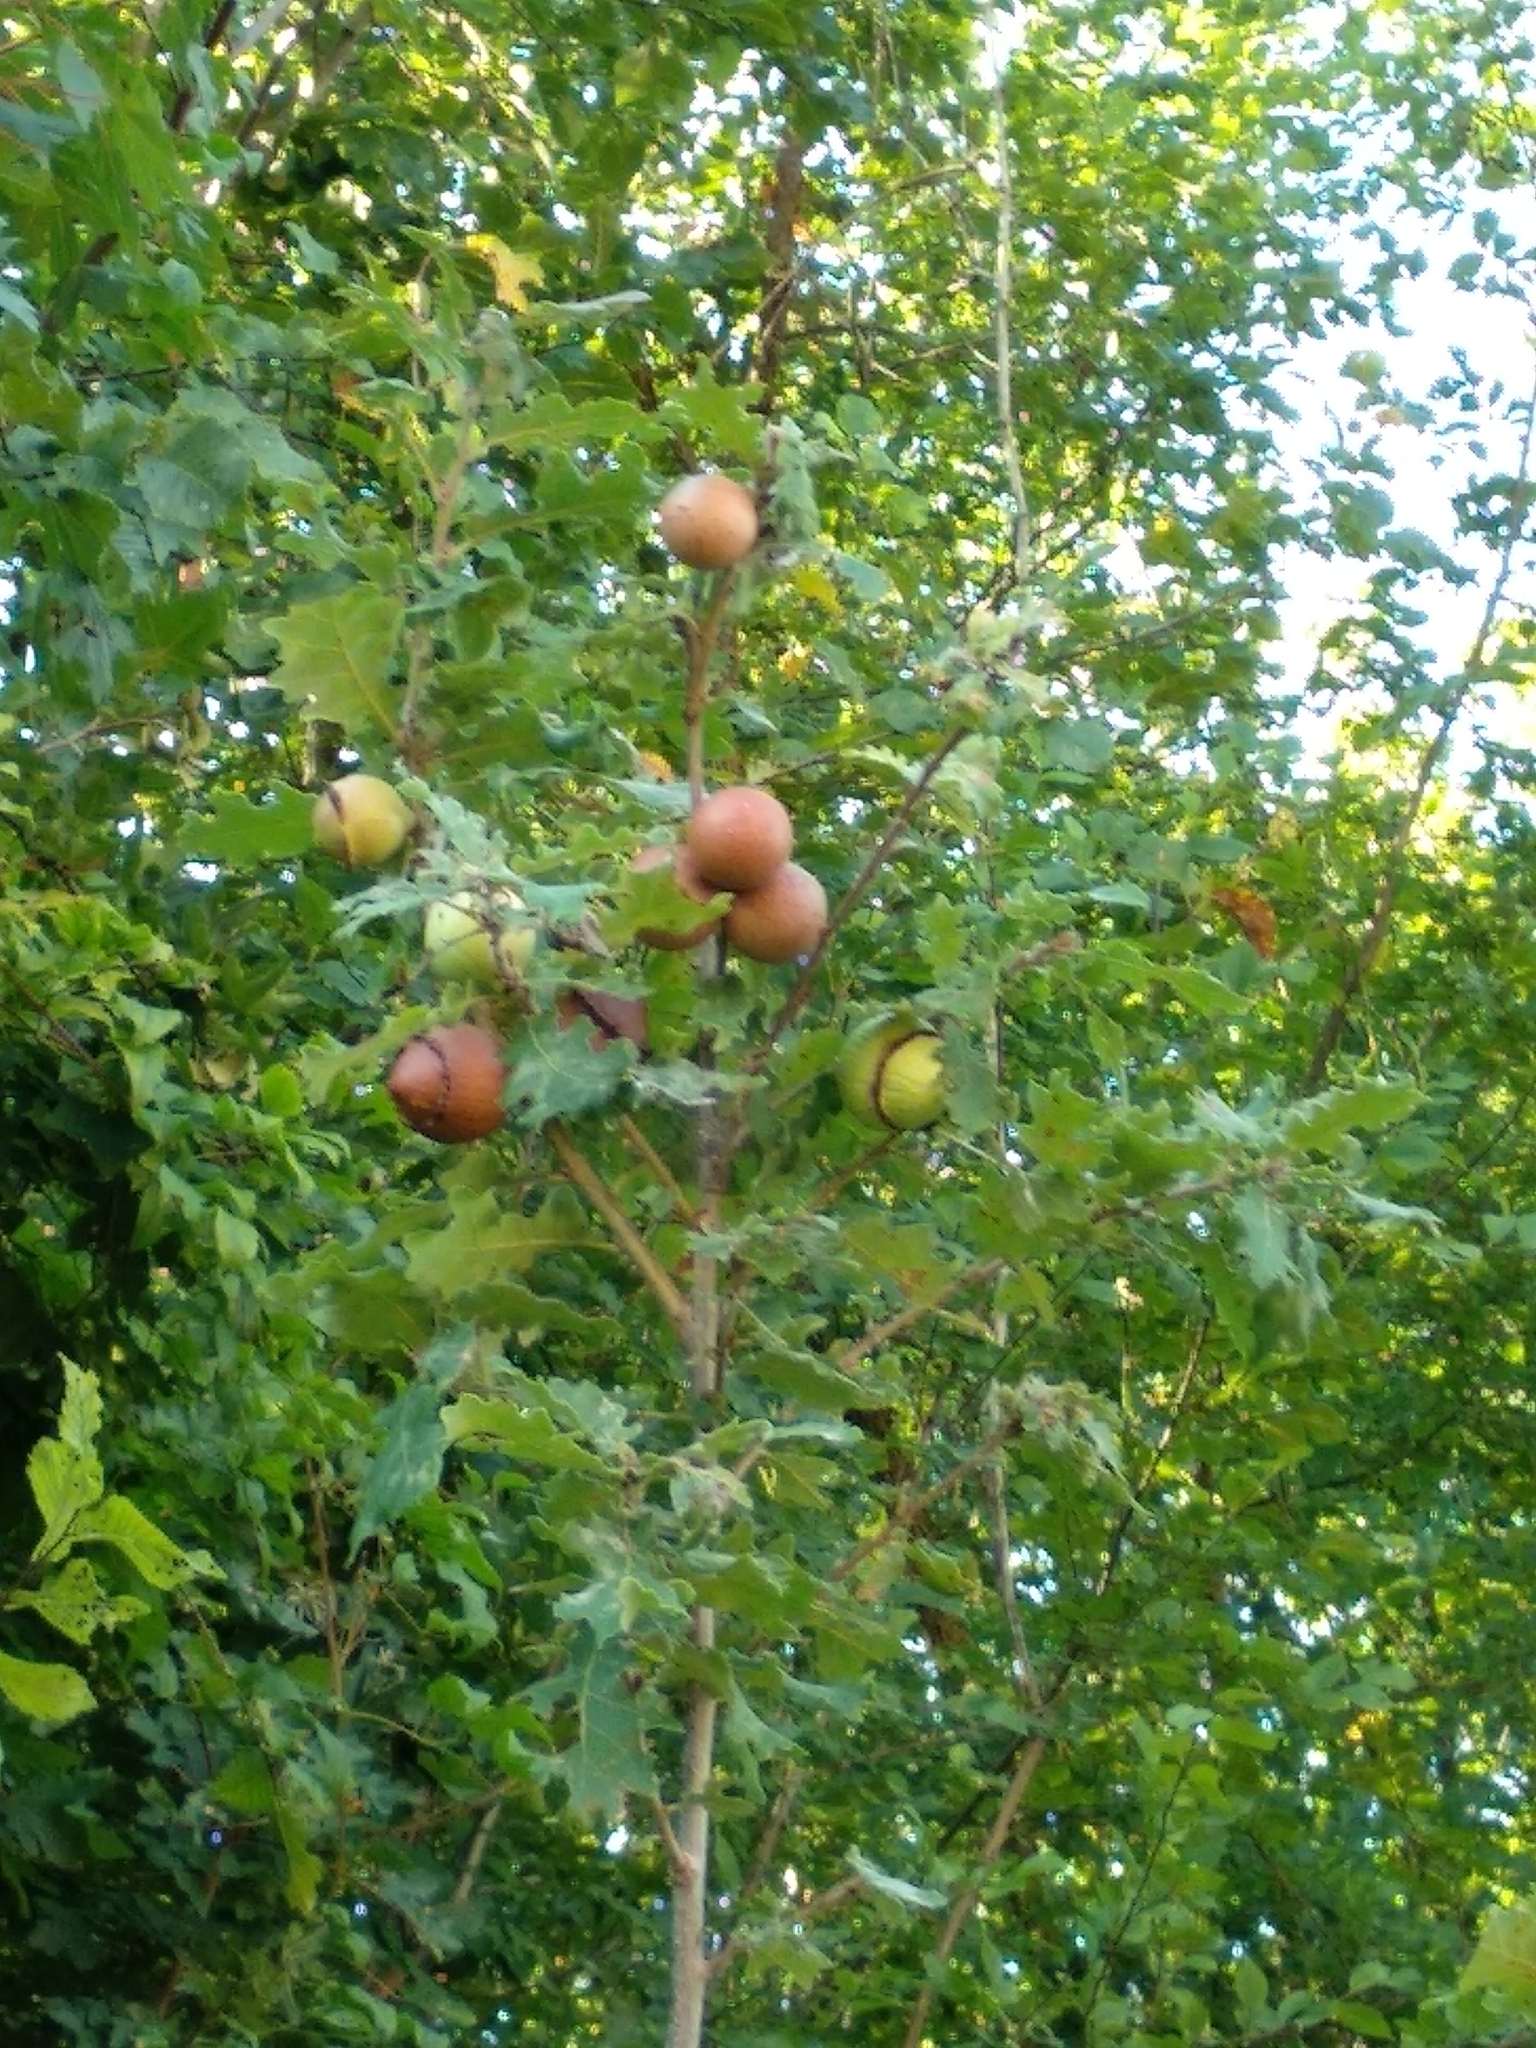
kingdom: Animalia
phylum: Arthropoda
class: Insecta
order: Hymenoptera
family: Cynipidae
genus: Andricus
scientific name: Andricus quercustozae
